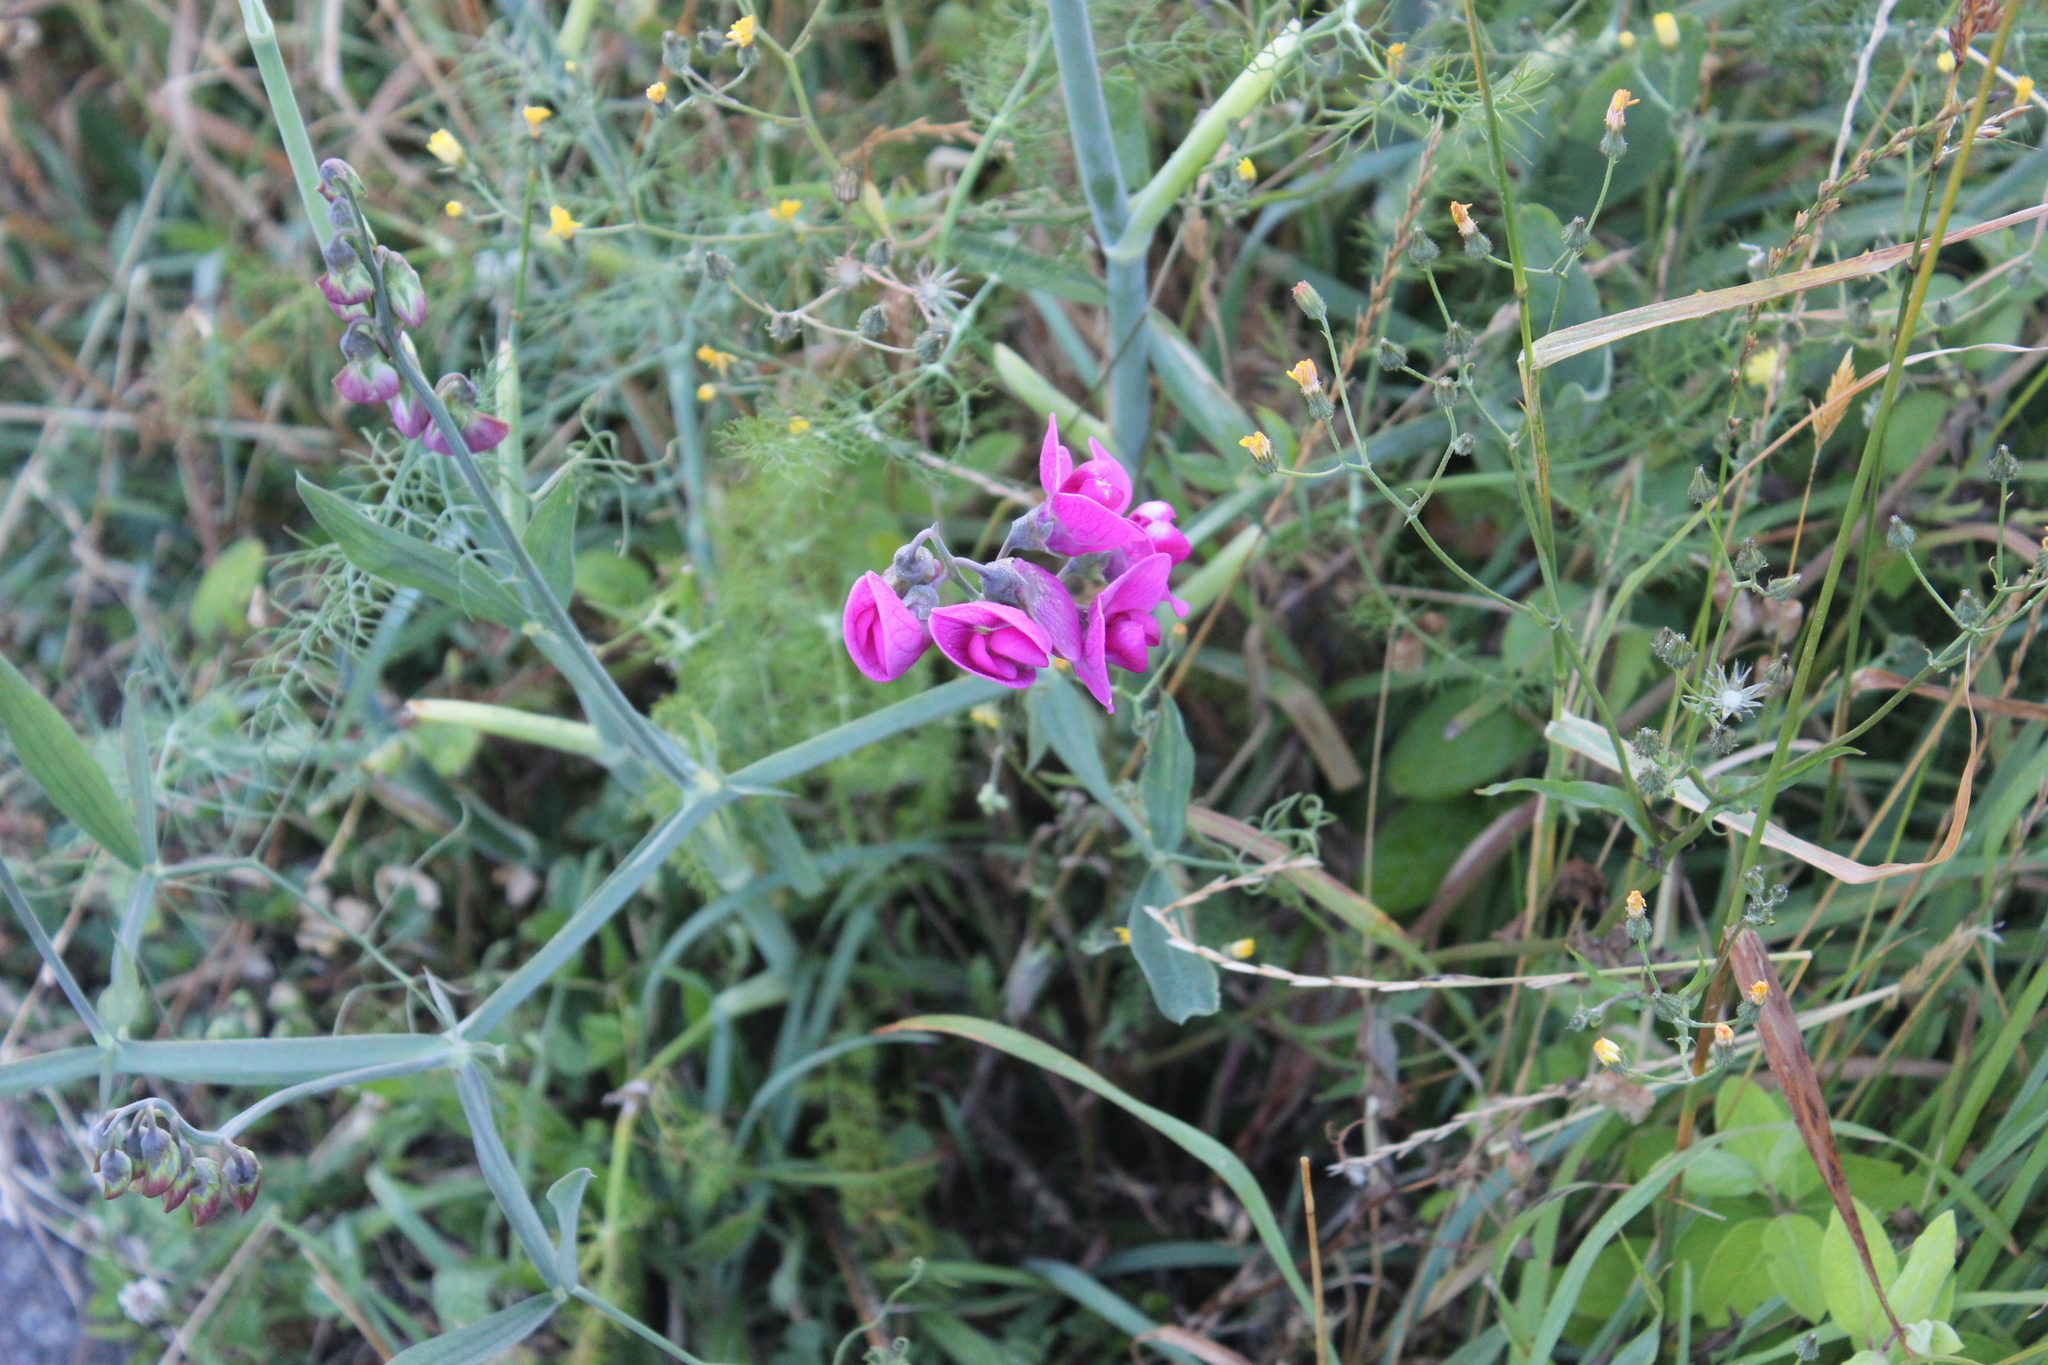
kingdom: Plantae
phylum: Tracheophyta
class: Magnoliopsida
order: Fabales
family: Fabaceae
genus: Lathyrus
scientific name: Lathyrus latifolius
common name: Perennial pea
